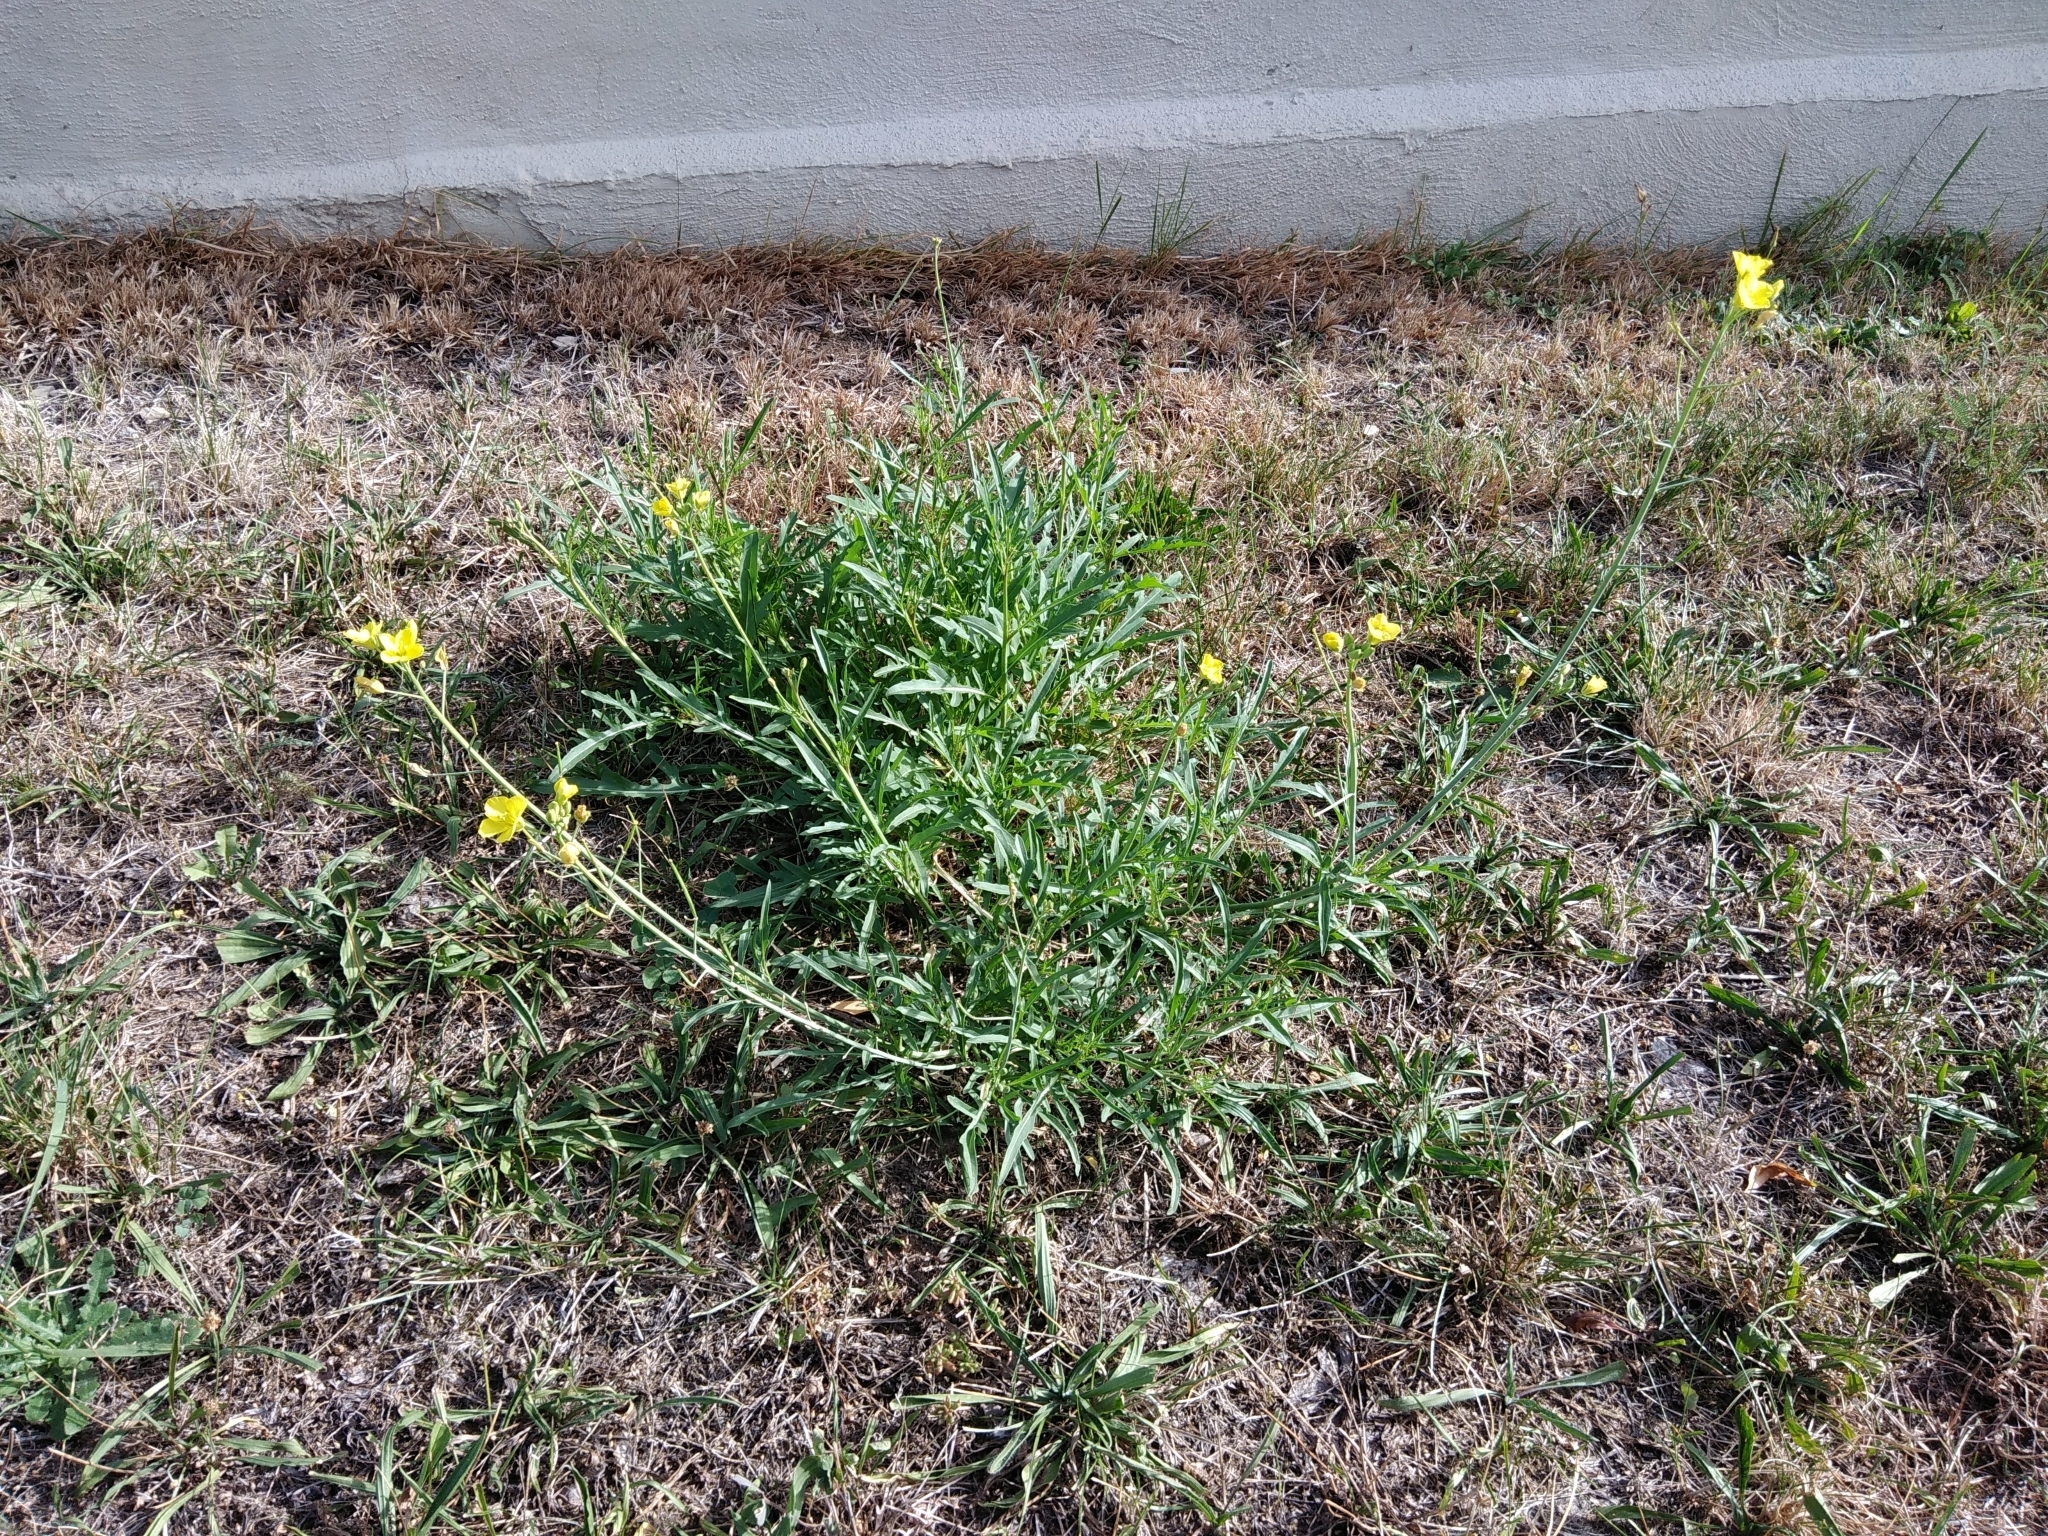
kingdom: Plantae
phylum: Tracheophyta
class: Magnoliopsida
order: Brassicales
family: Brassicaceae
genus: Diplotaxis
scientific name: Diplotaxis tenuifolia
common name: Perennial wall-rocket
